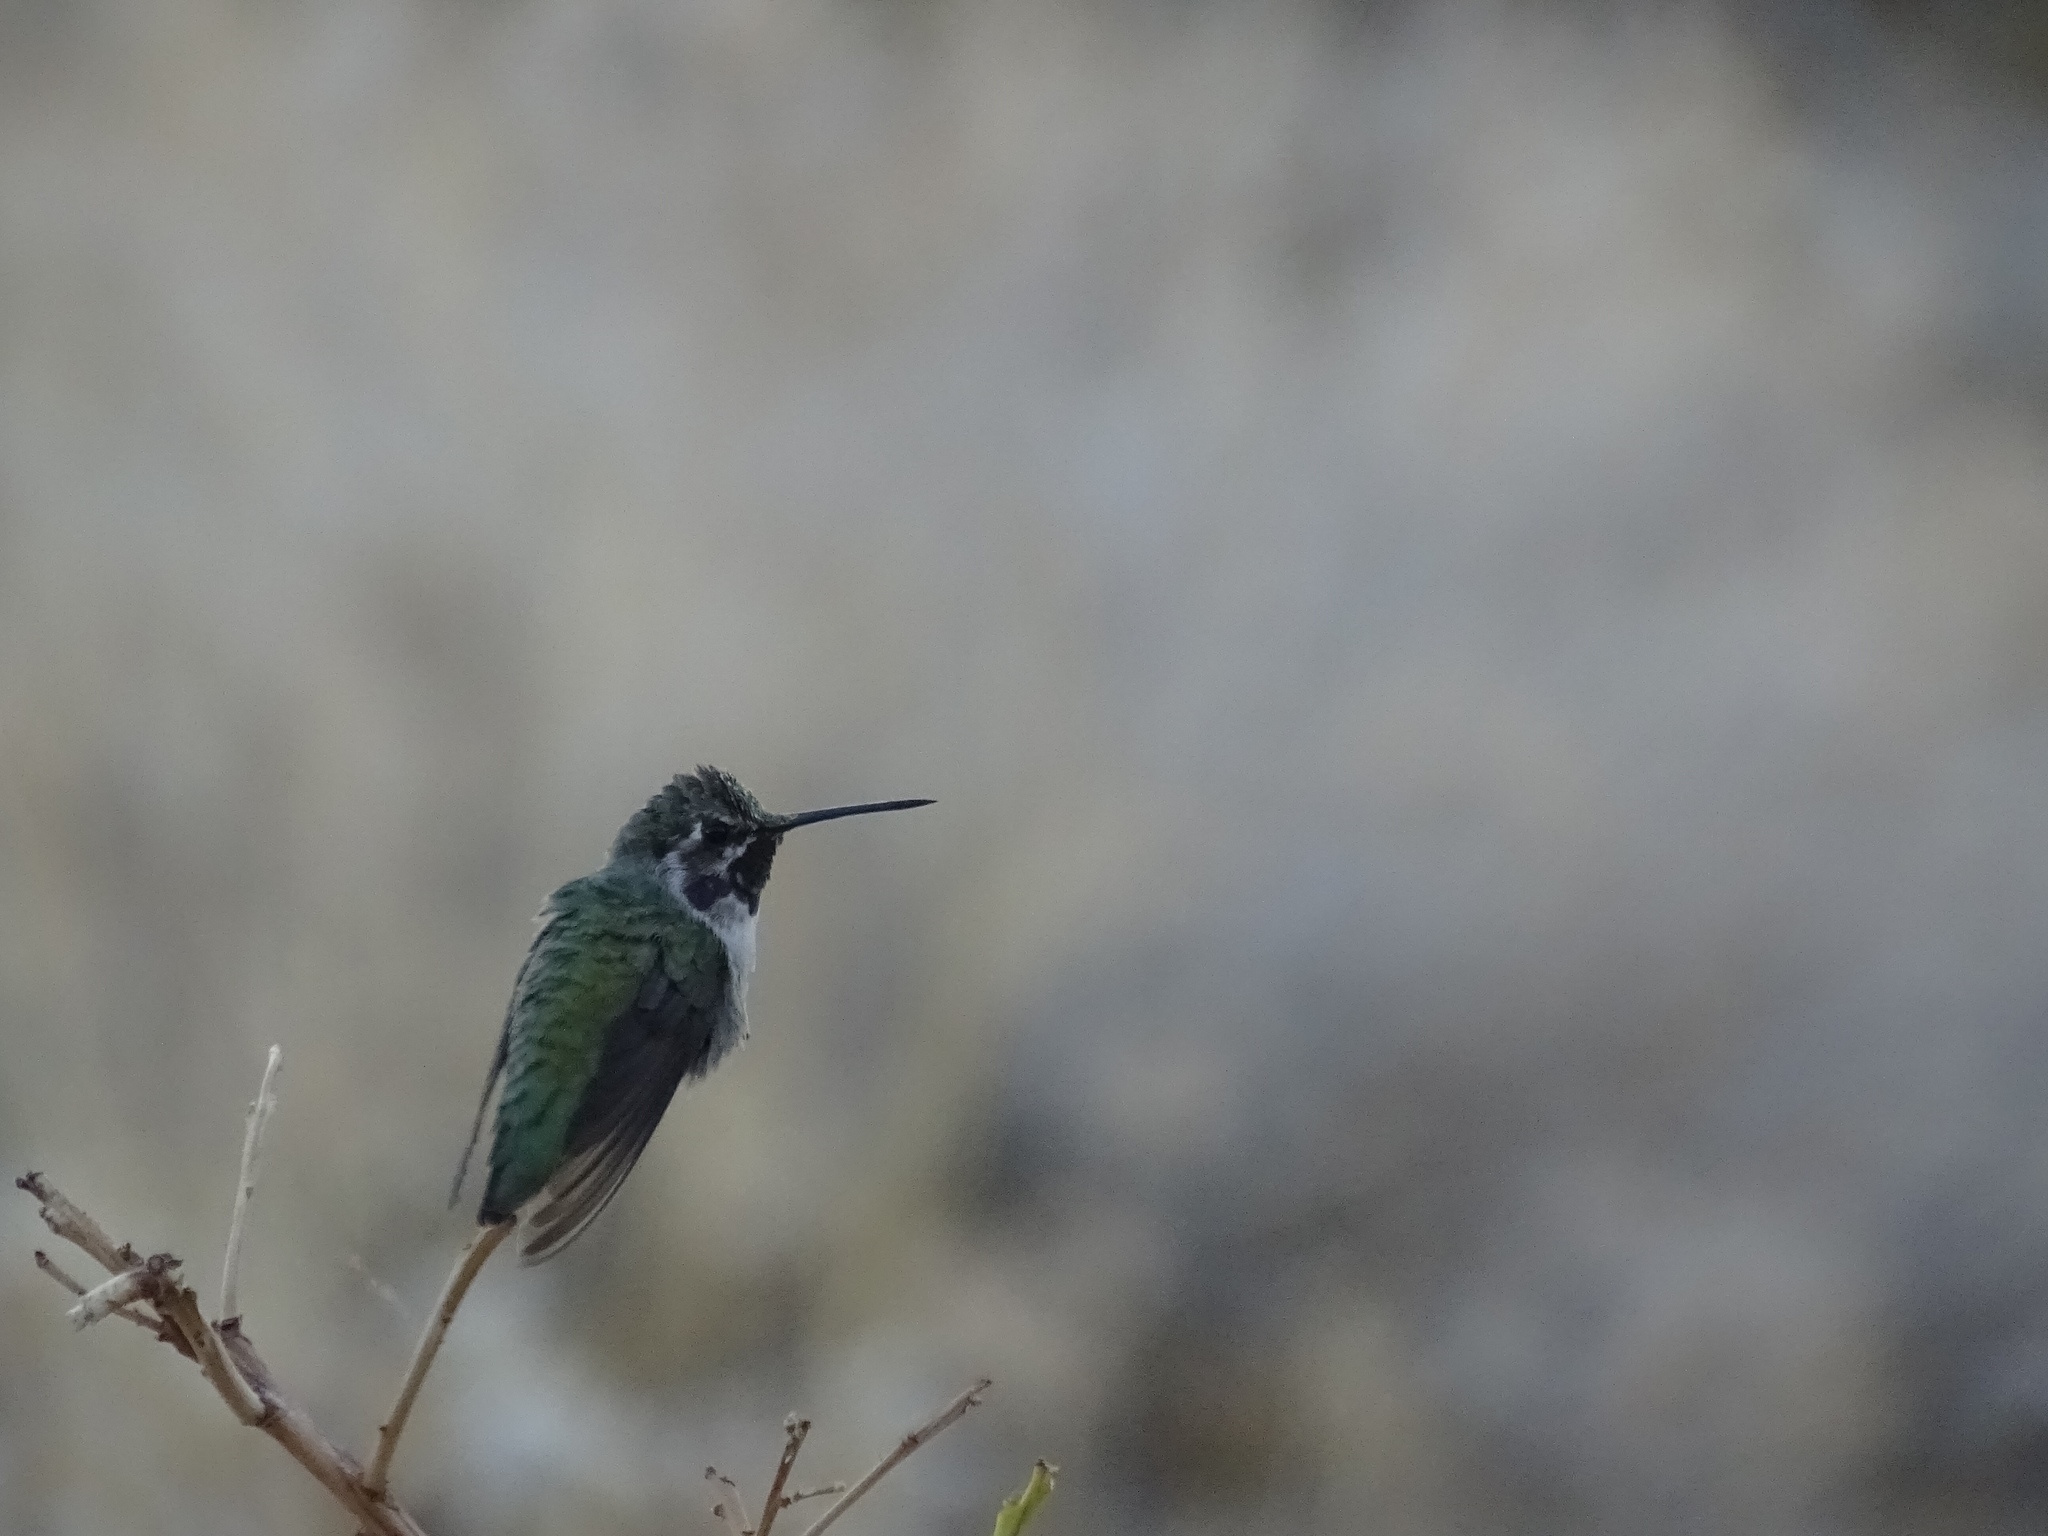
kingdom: Animalia
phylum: Chordata
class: Aves
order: Apodiformes
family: Trochilidae
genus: Calypte
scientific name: Calypte costae
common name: Costa's hummingbird
